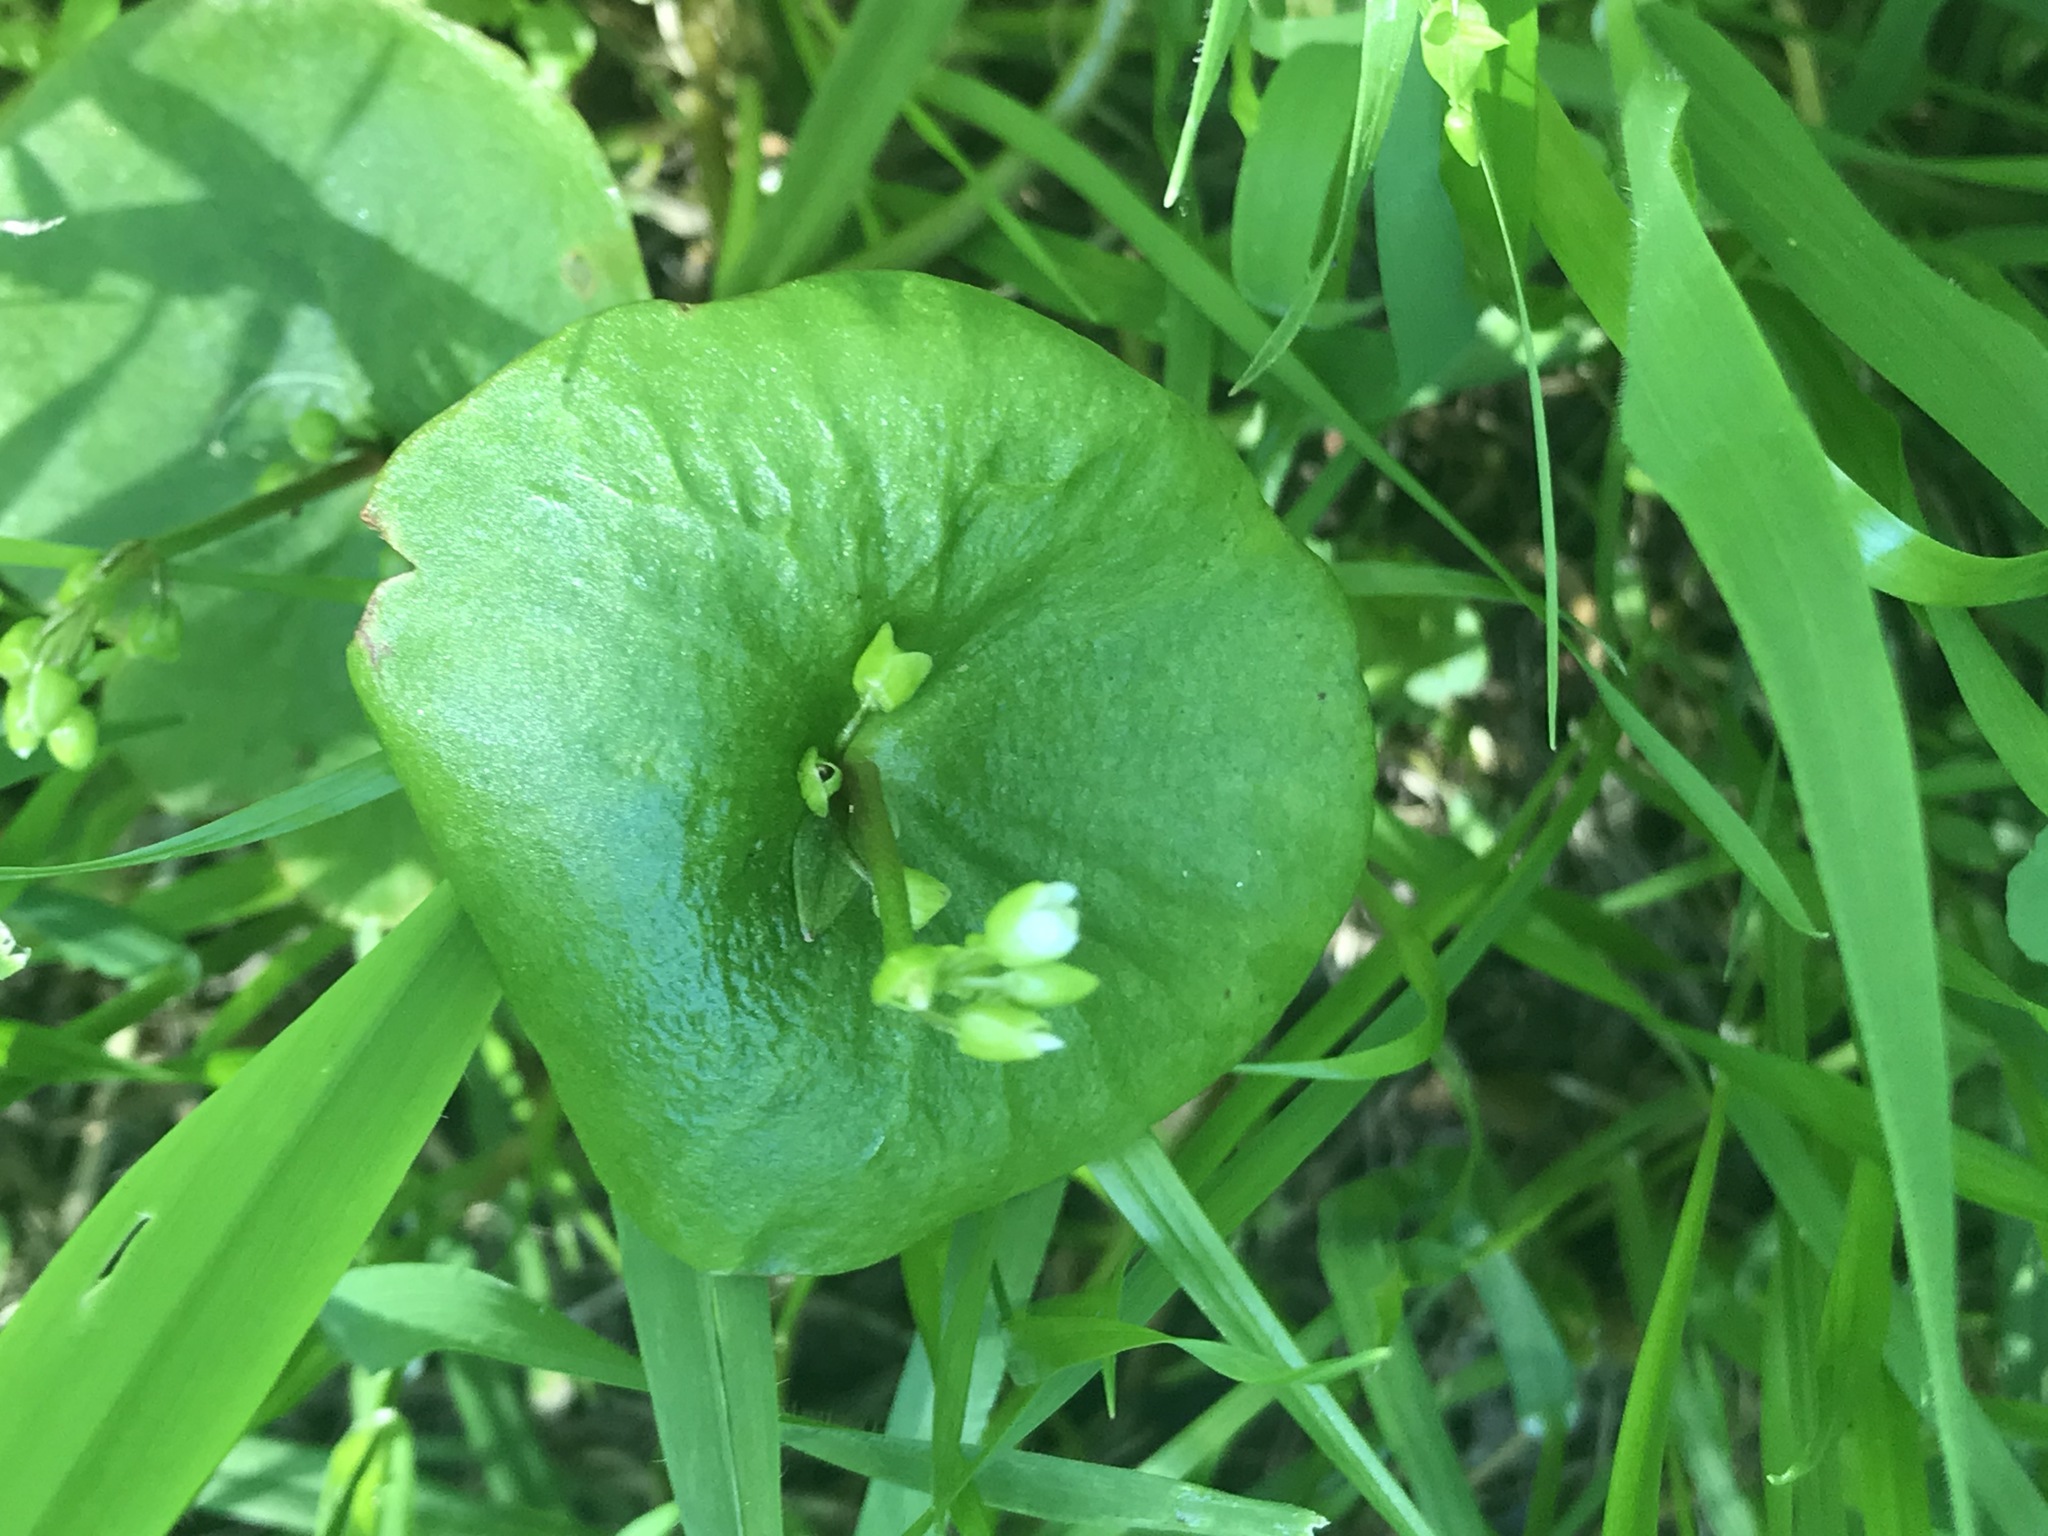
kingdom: Plantae
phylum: Tracheophyta
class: Magnoliopsida
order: Caryophyllales
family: Montiaceae
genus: Claytonia
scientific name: Claytonia perfoliata
